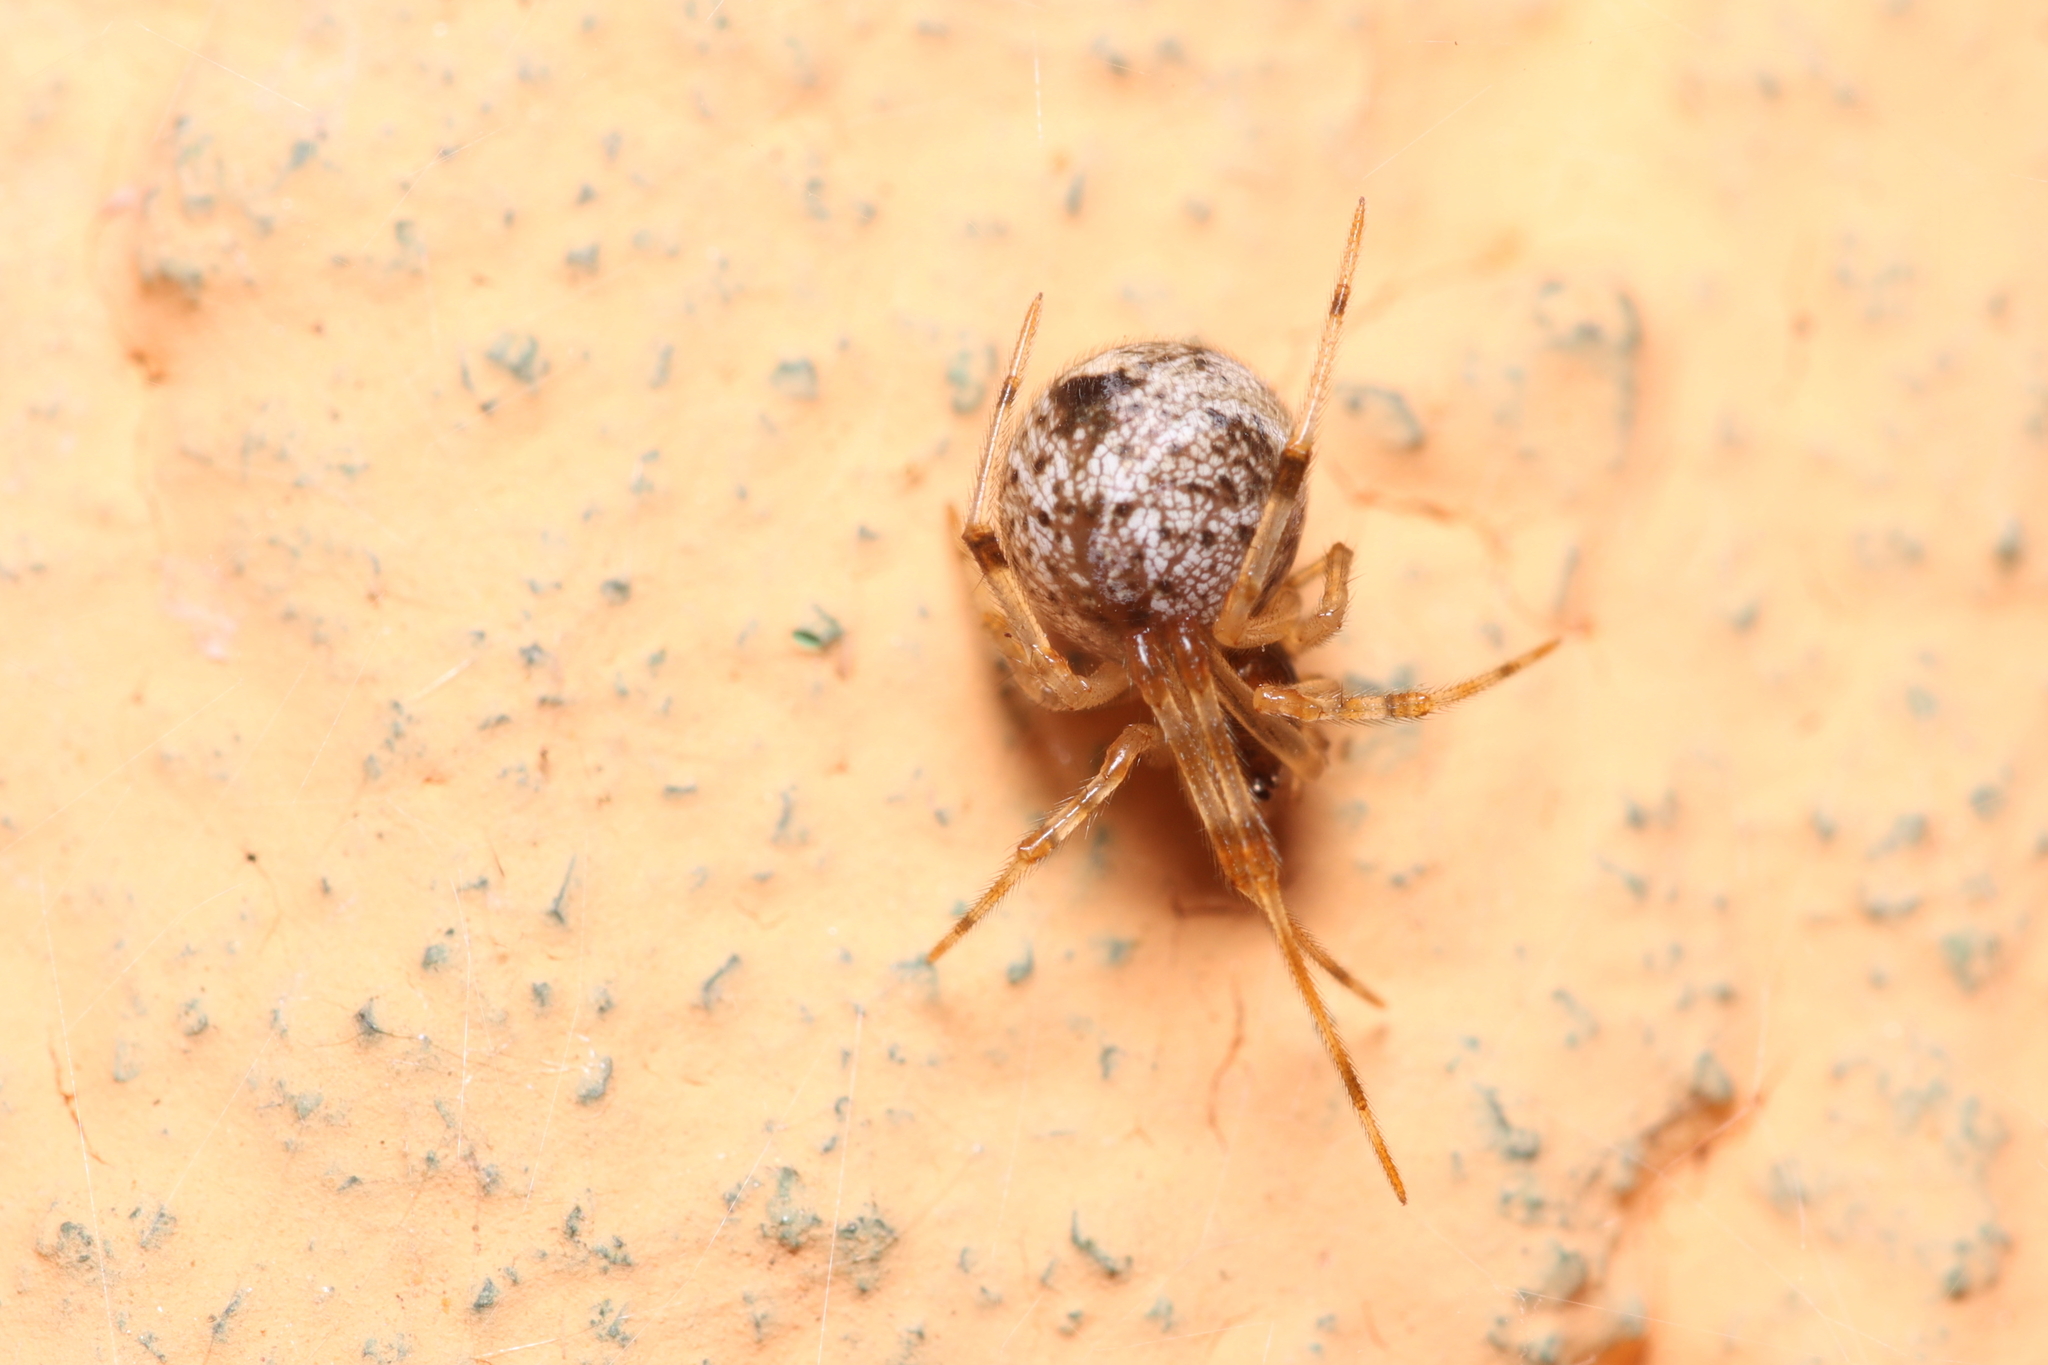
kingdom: Animalia
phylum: Arthropoda
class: Arachnida
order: Araneae
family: Theridiidae
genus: Parasteatoda
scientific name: Parasteatoda tepidariorum
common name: Common house spider
